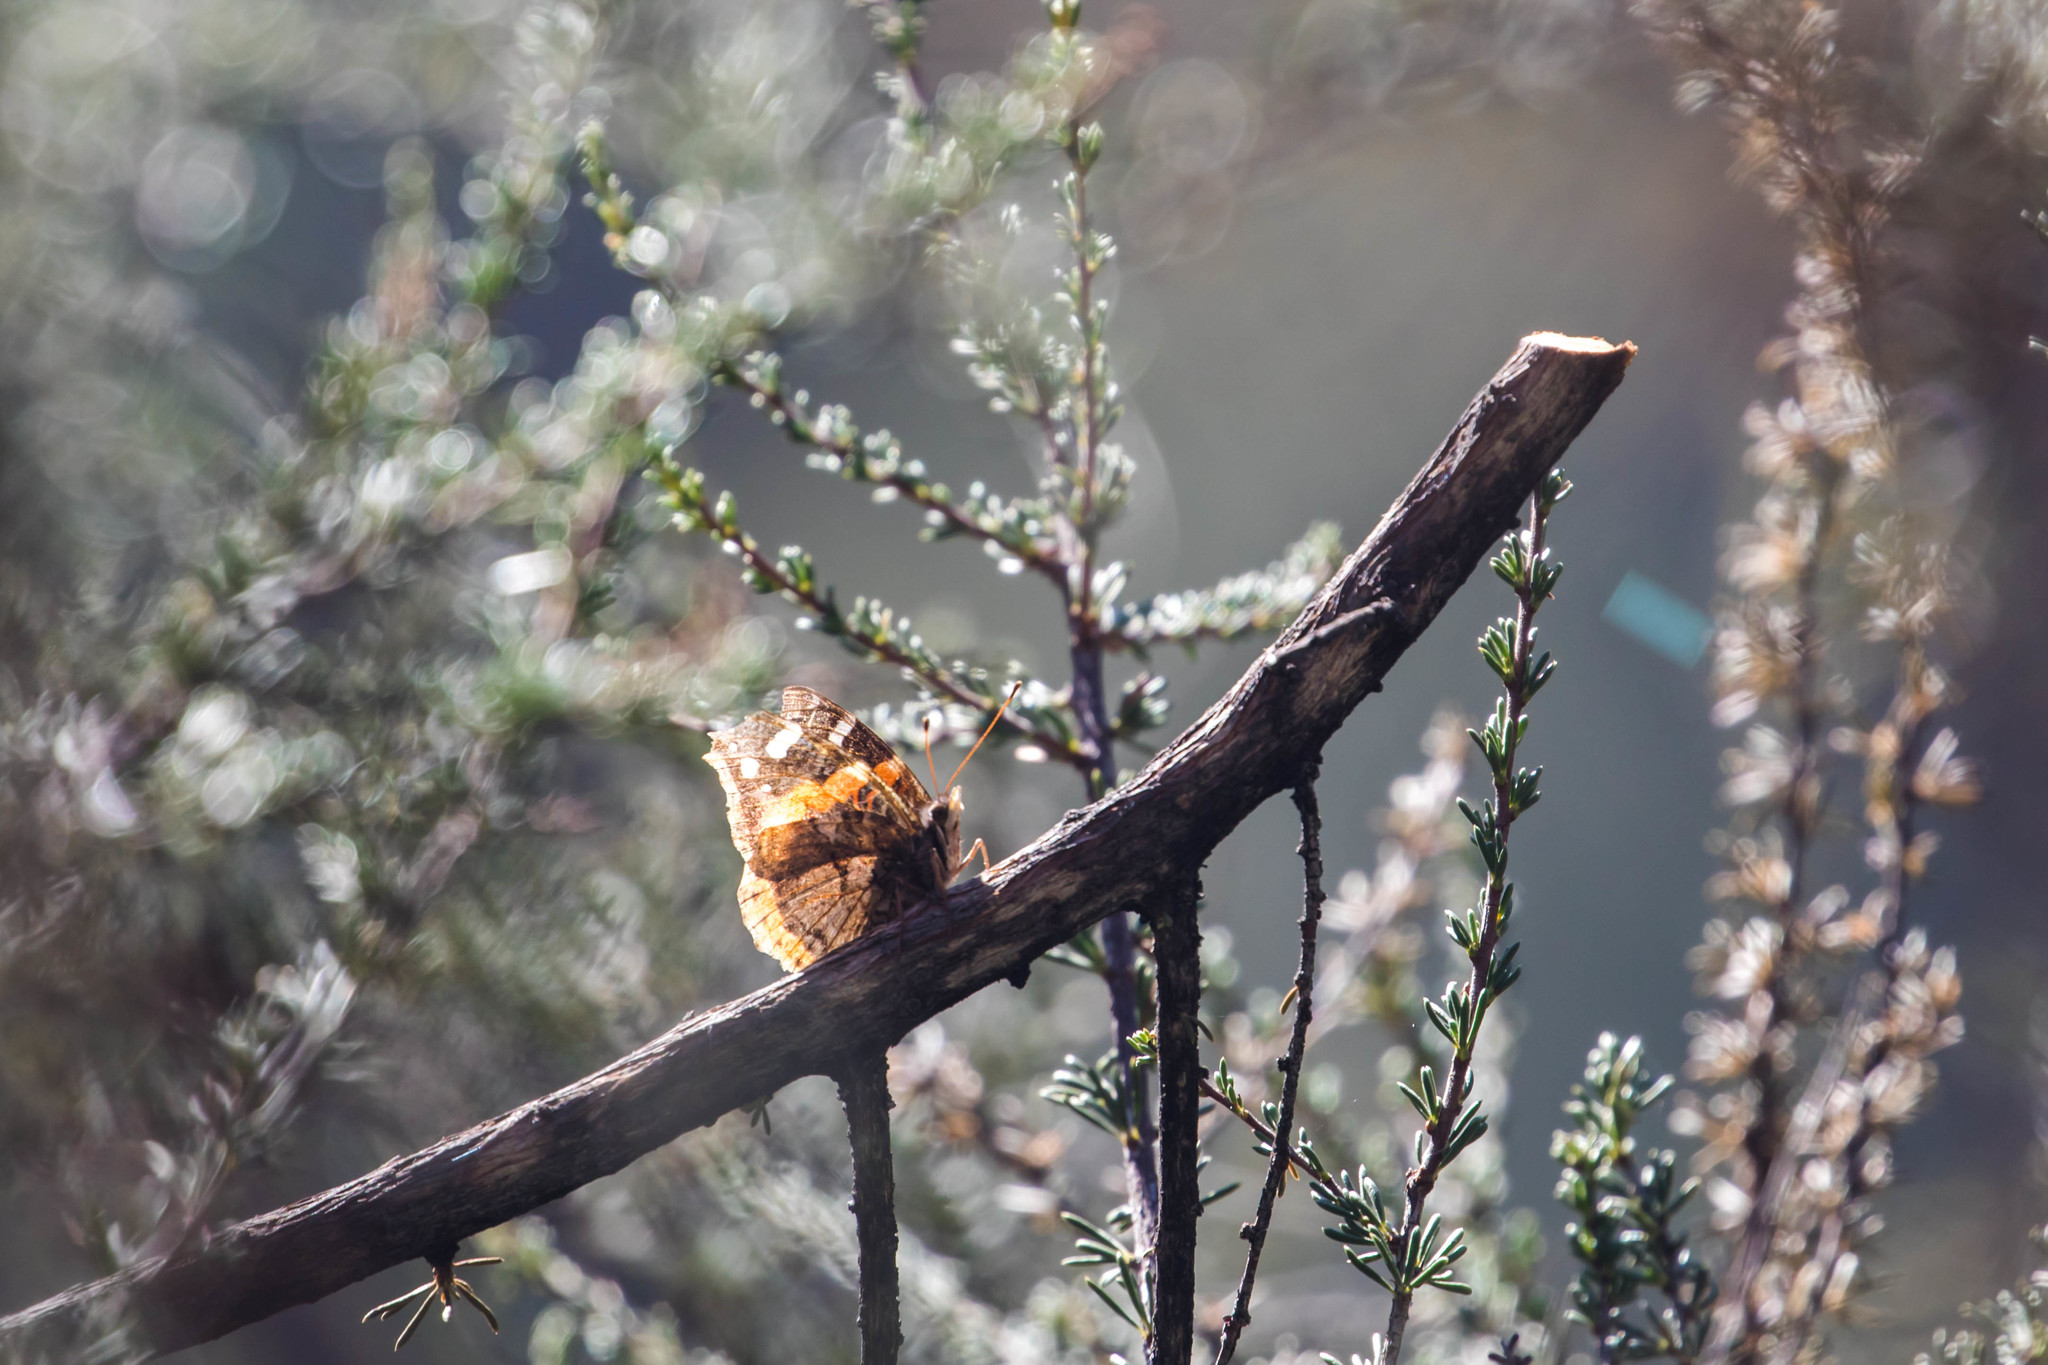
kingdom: Animalia
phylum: Arthropoda
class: Insecta
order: Lepidoptera
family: Nymphalidae
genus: Vanessa
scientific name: Vanessa atalanta
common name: Red admiral
